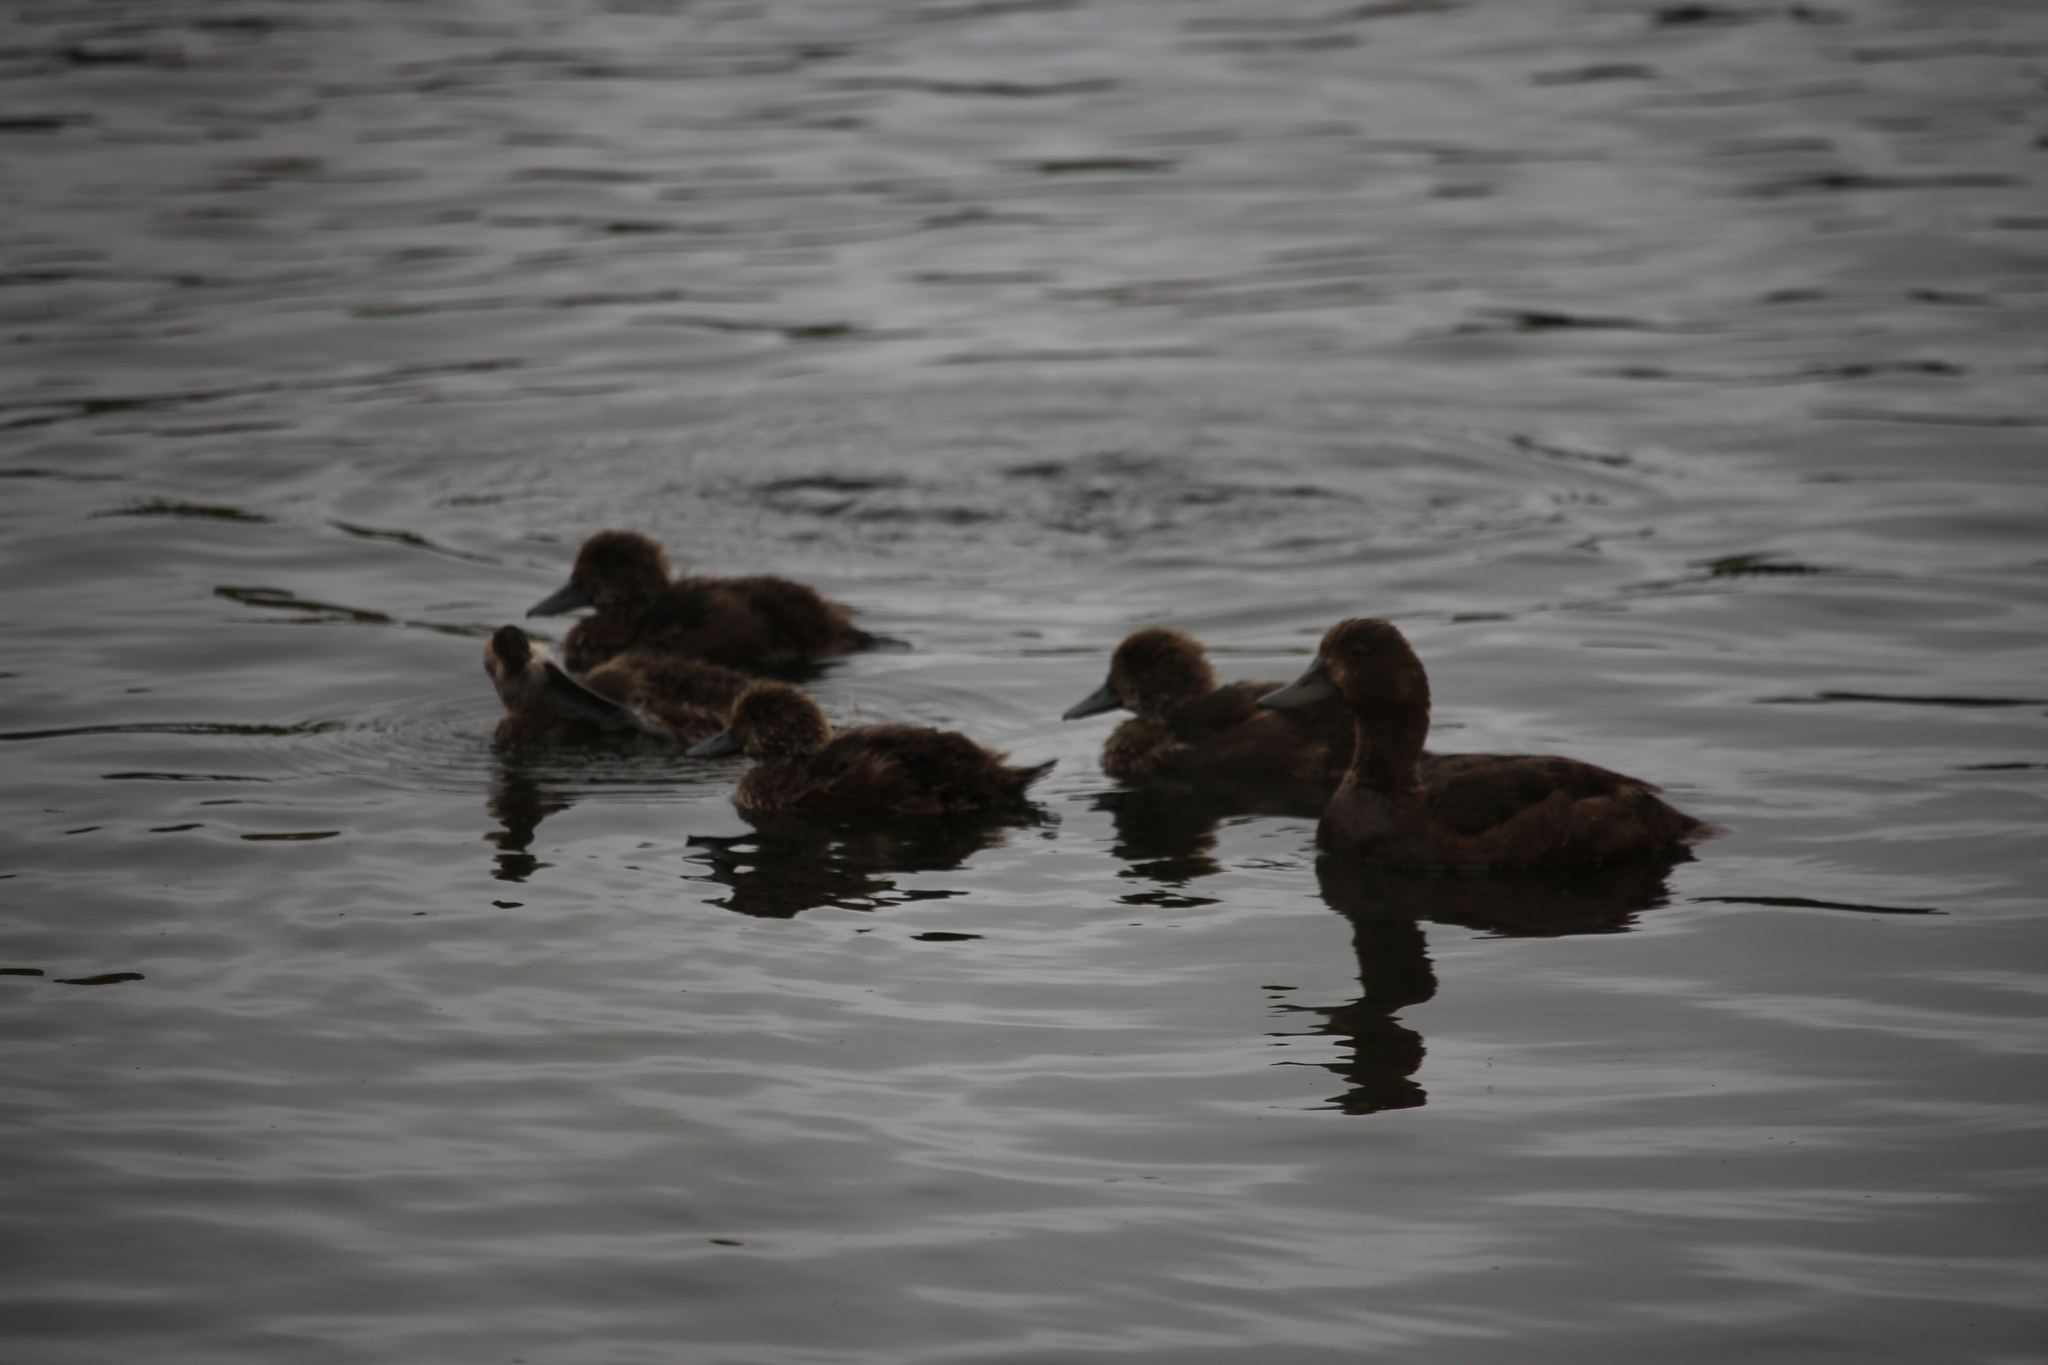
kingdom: Animalia
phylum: Chordata
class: Aves
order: Anseriformes
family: Anatidae
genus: Aythya
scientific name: Aythya novaeseelandiae
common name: New zealand scaup
